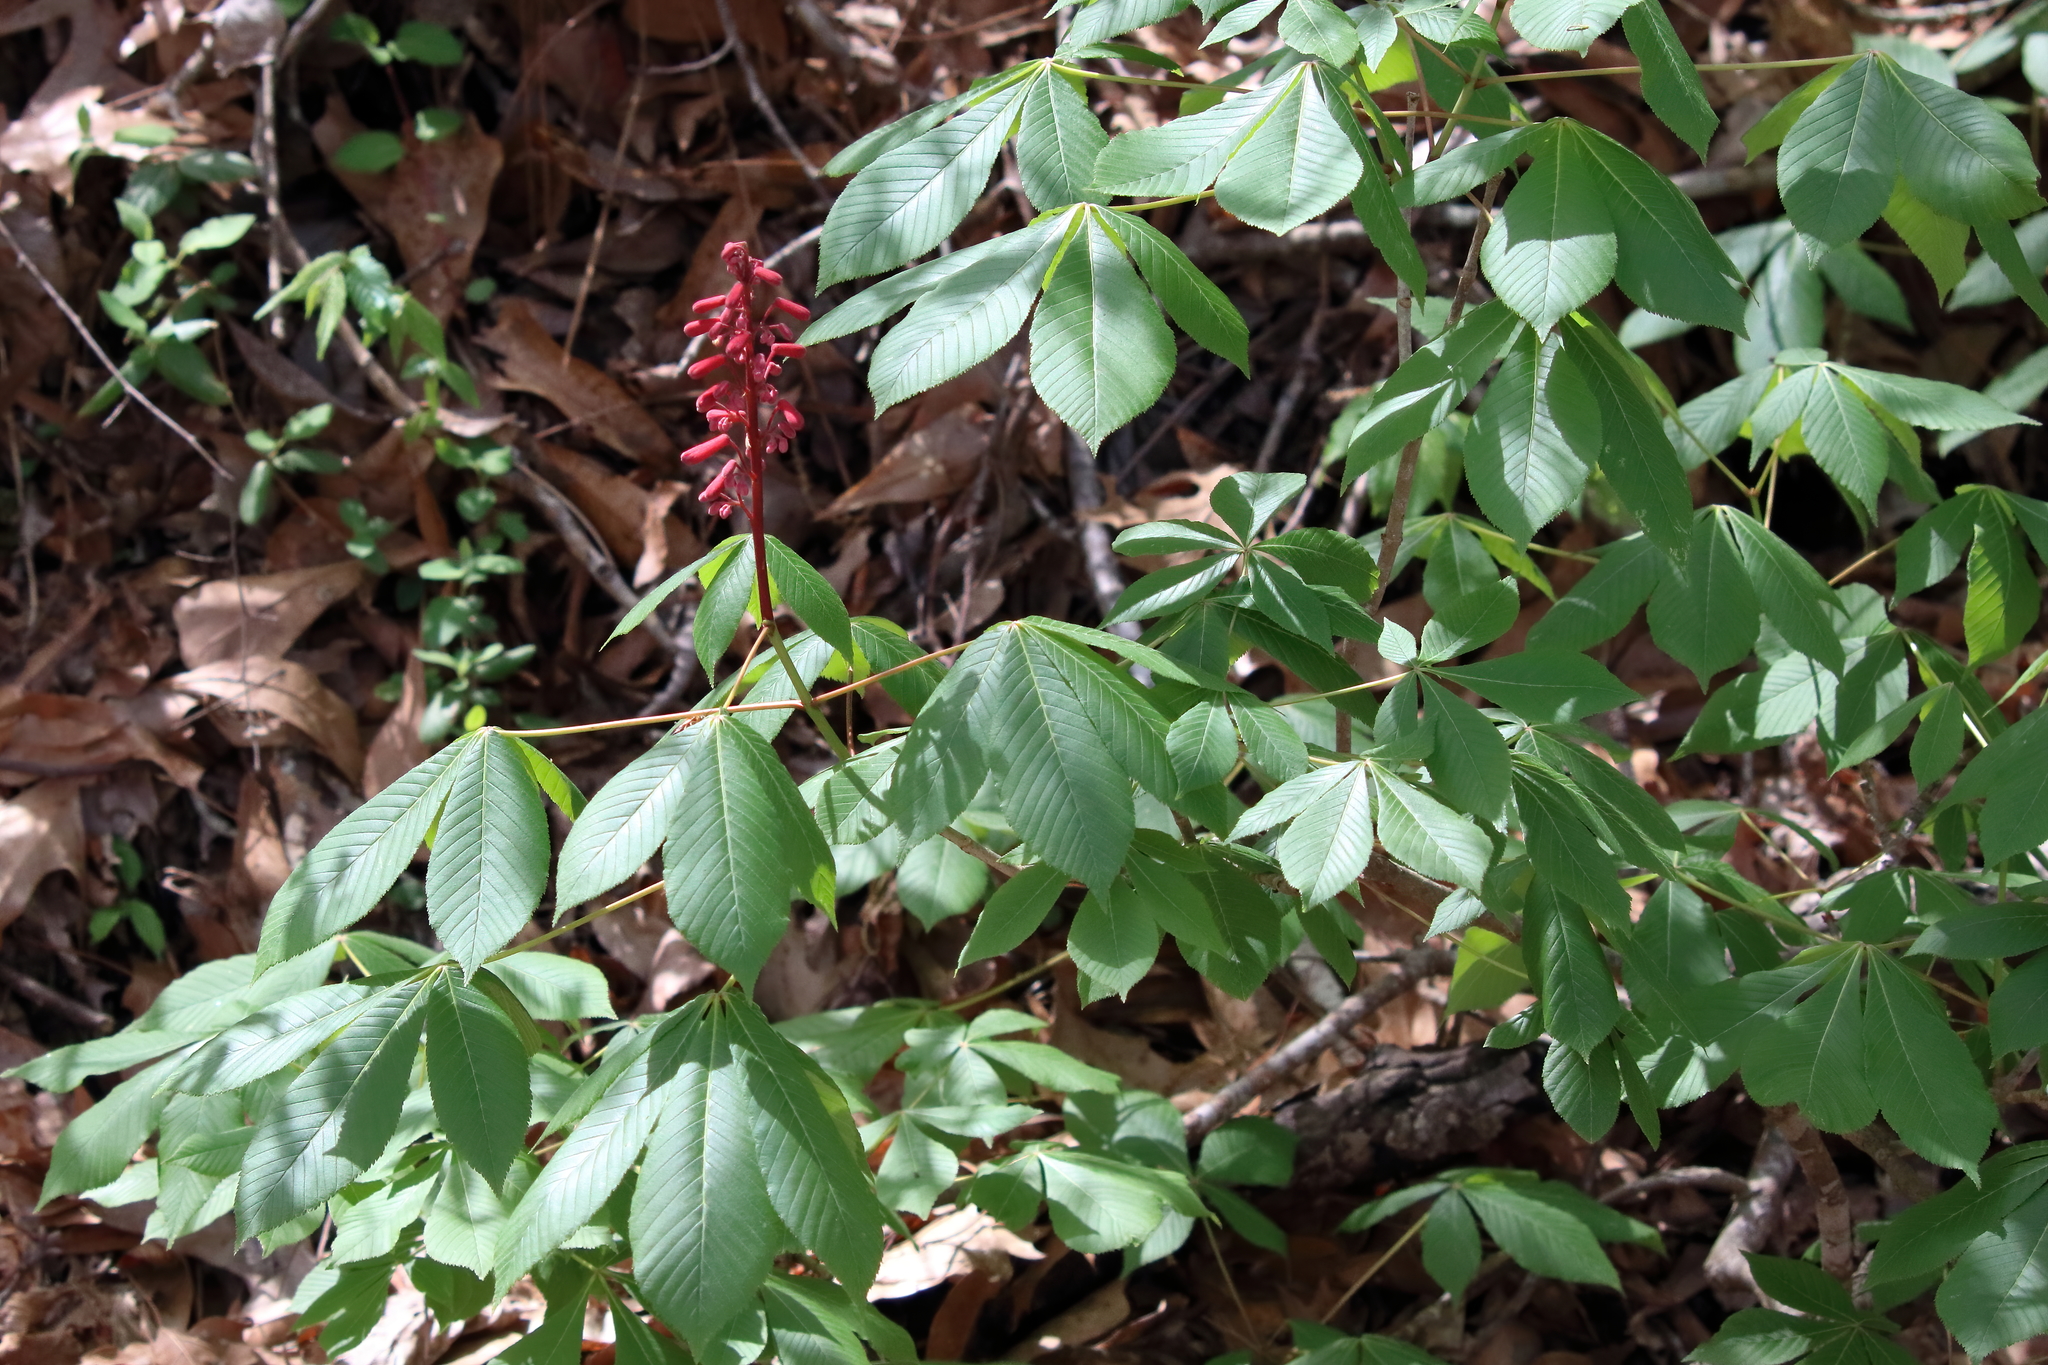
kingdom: Plantae
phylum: Tracheophyta
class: Magnoliopsida
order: Sapindales
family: Sapindaceae
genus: Aesculus
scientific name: Aesculus pavia
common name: Red buckeye
